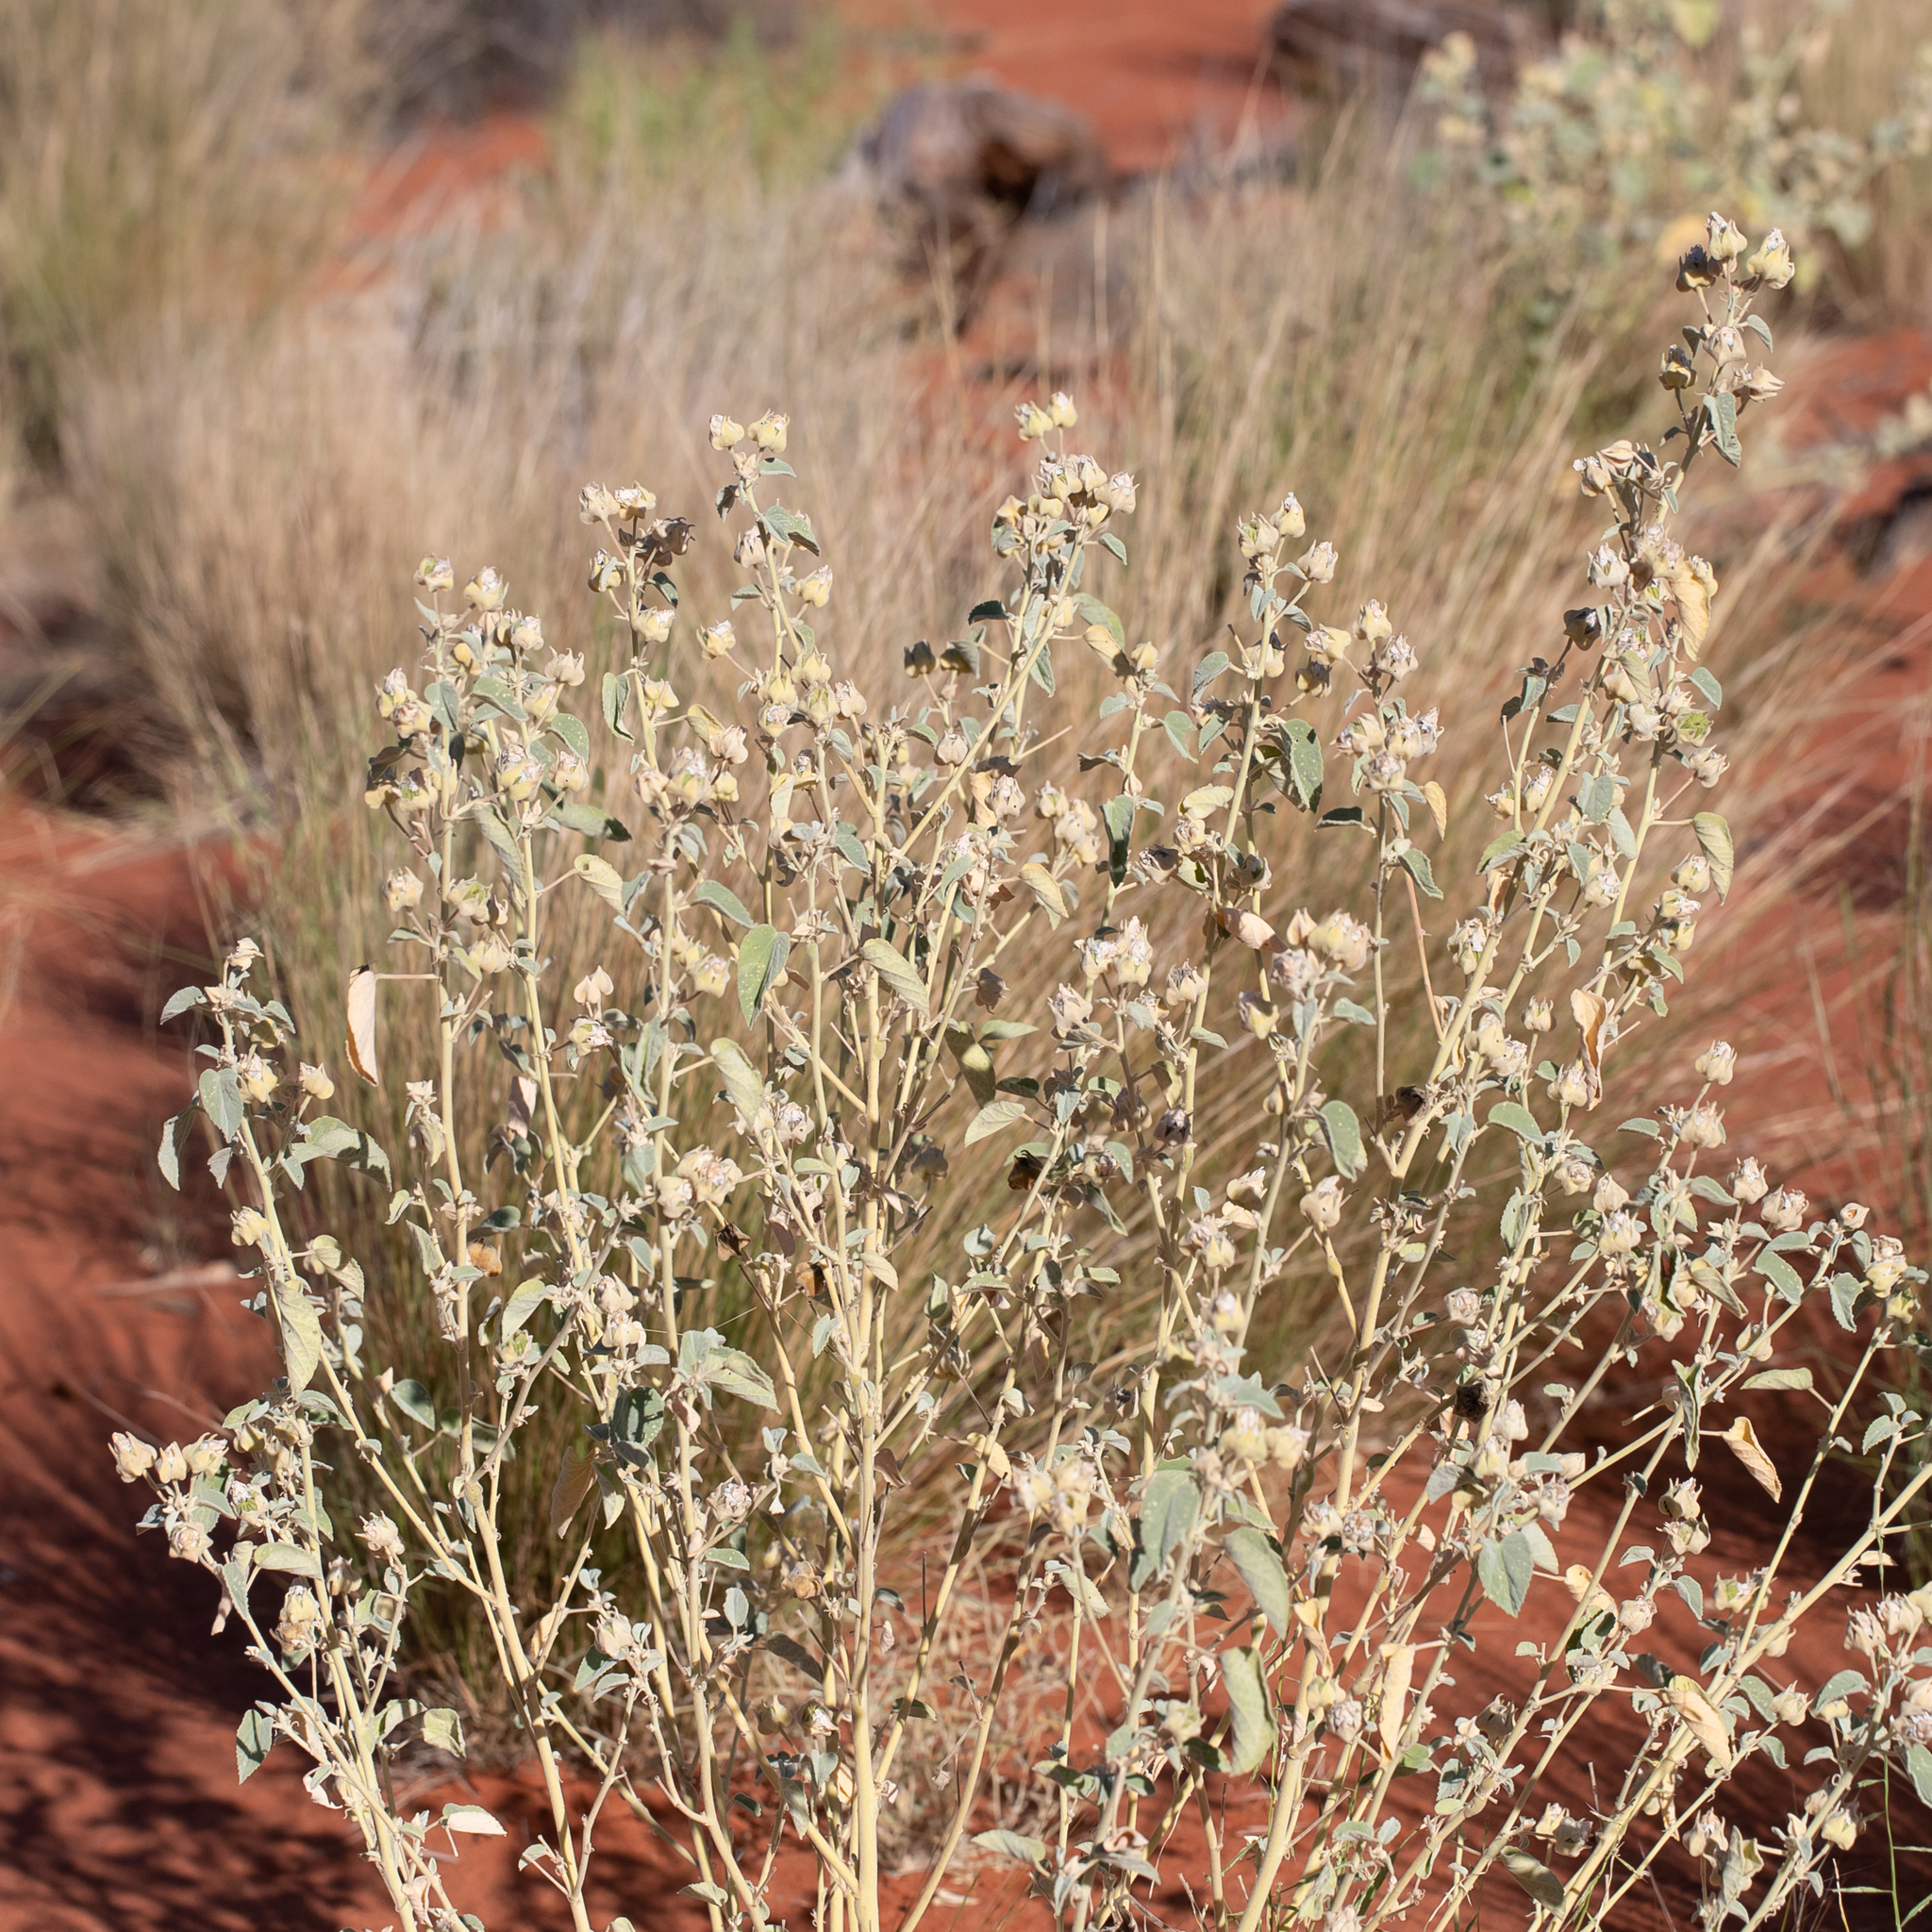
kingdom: Plantae
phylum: Tracheophyta
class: Magnoliopsida
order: Malvales
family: Malvaceae
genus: Abutilon
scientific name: Abutilon otocarpum
